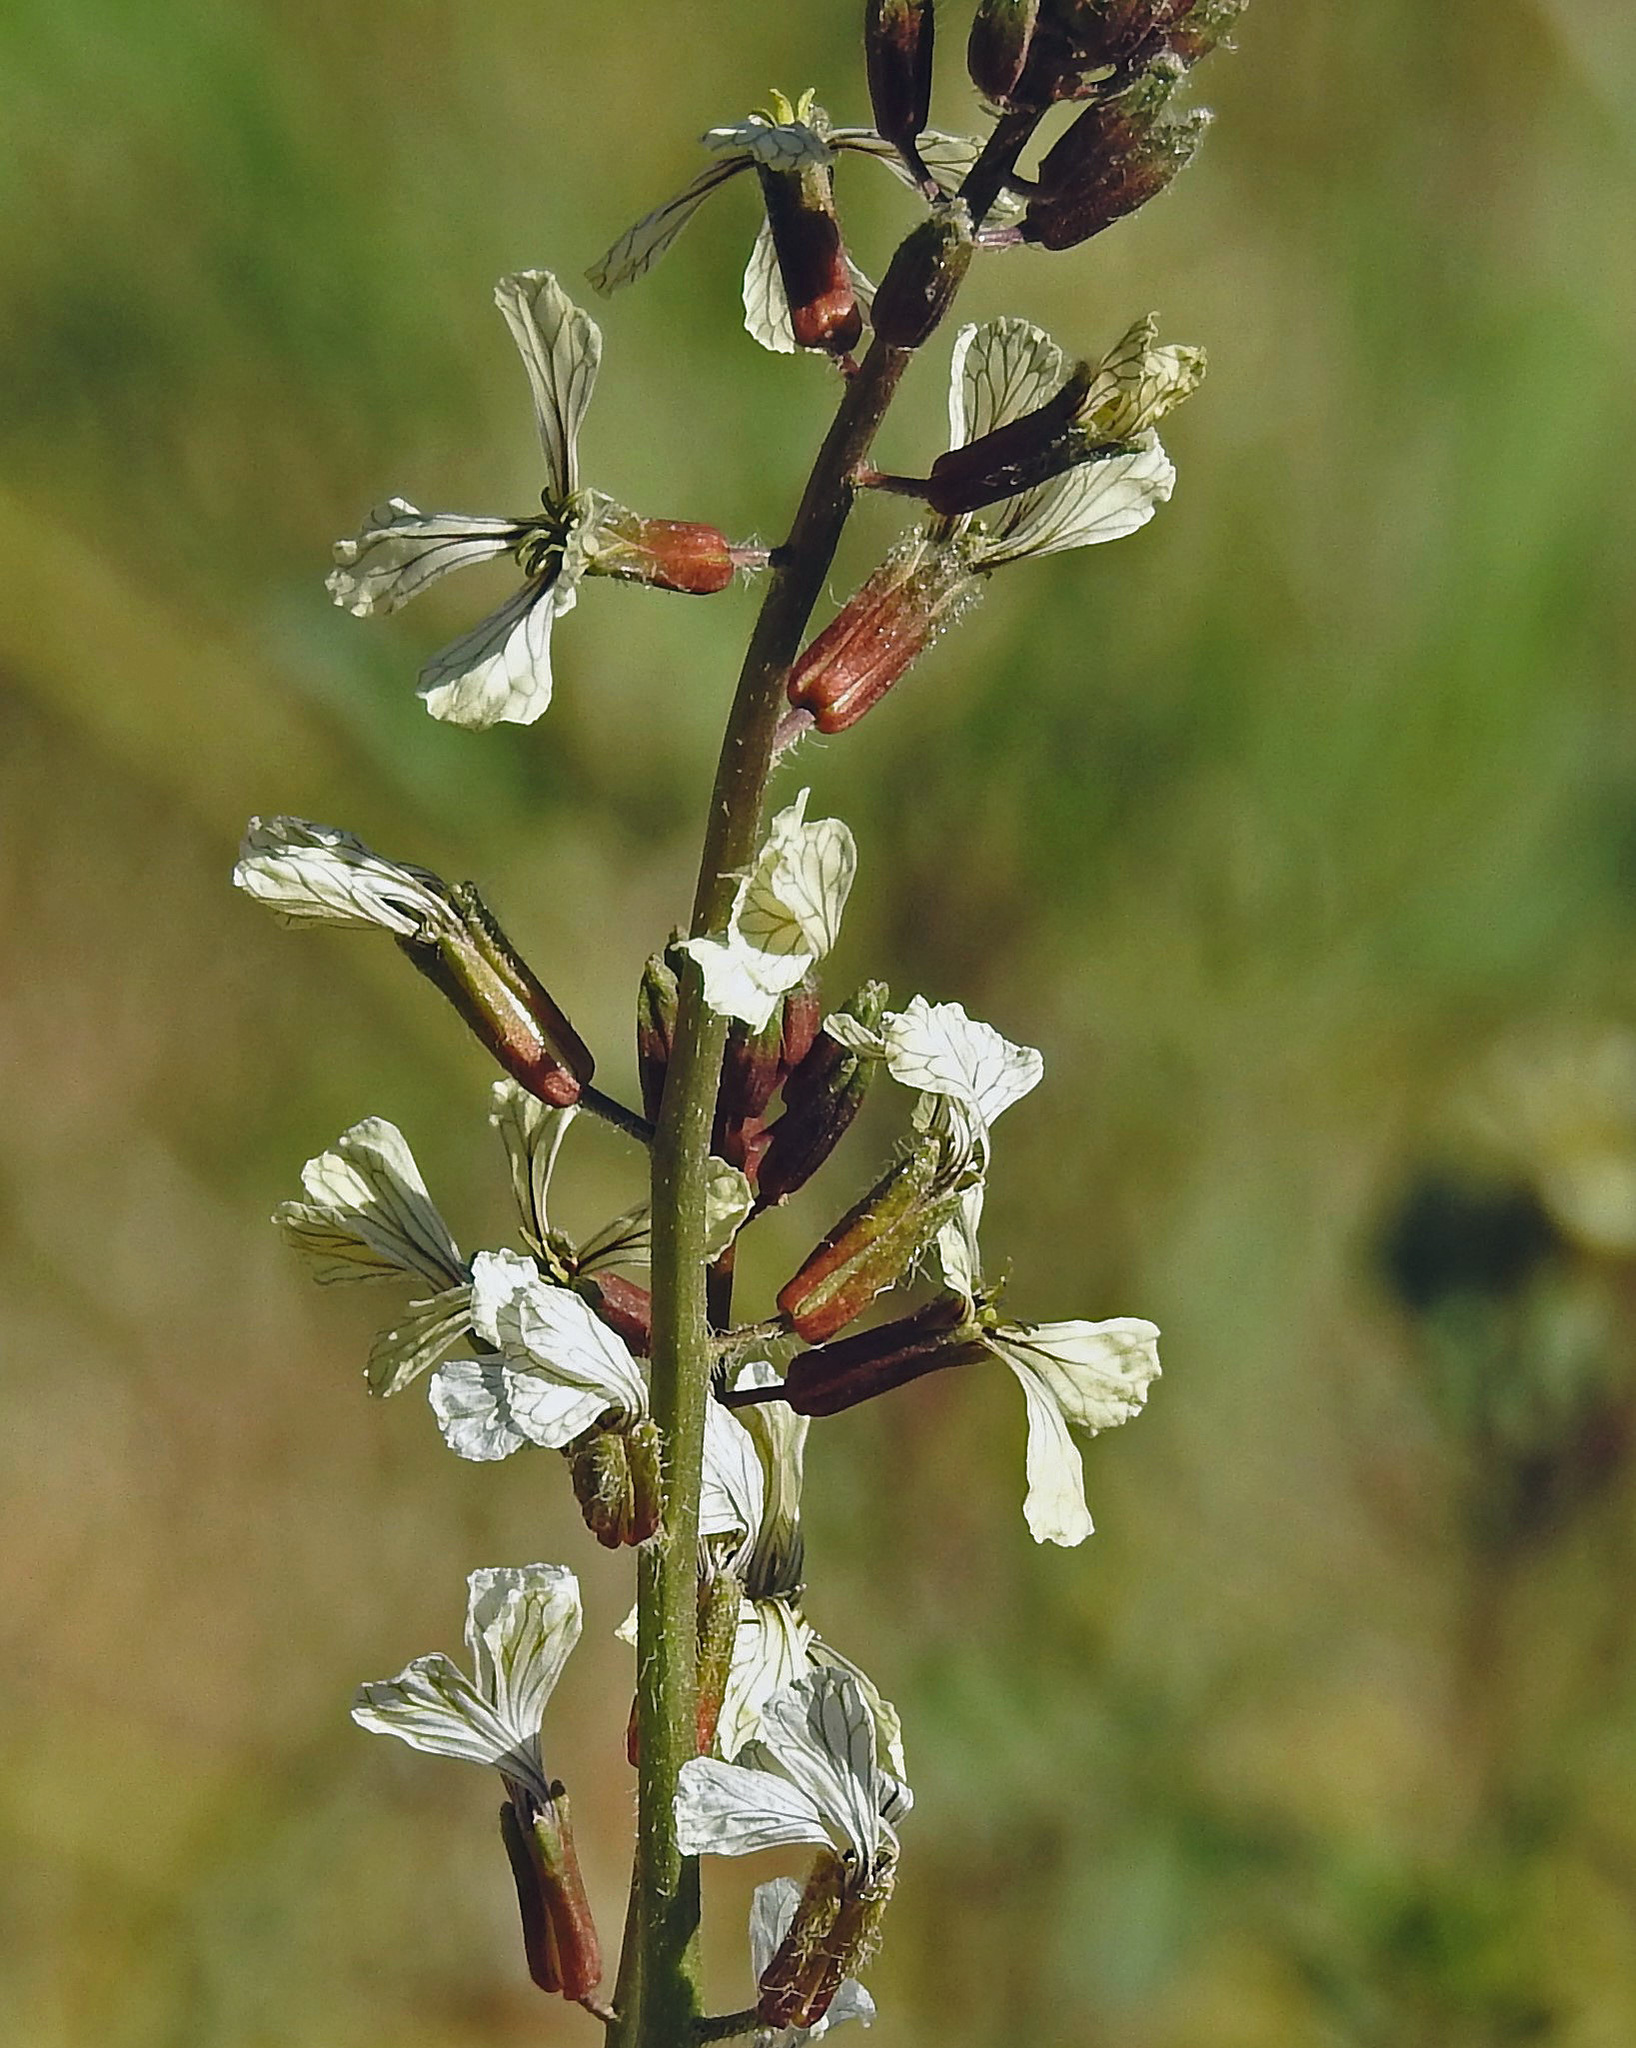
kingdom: Plantae
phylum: Tracheophyta
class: Magnoliopsida
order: Brassicales
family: Brassicaceae
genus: Eruca
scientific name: Eruca vesicaria
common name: Garden rocket
